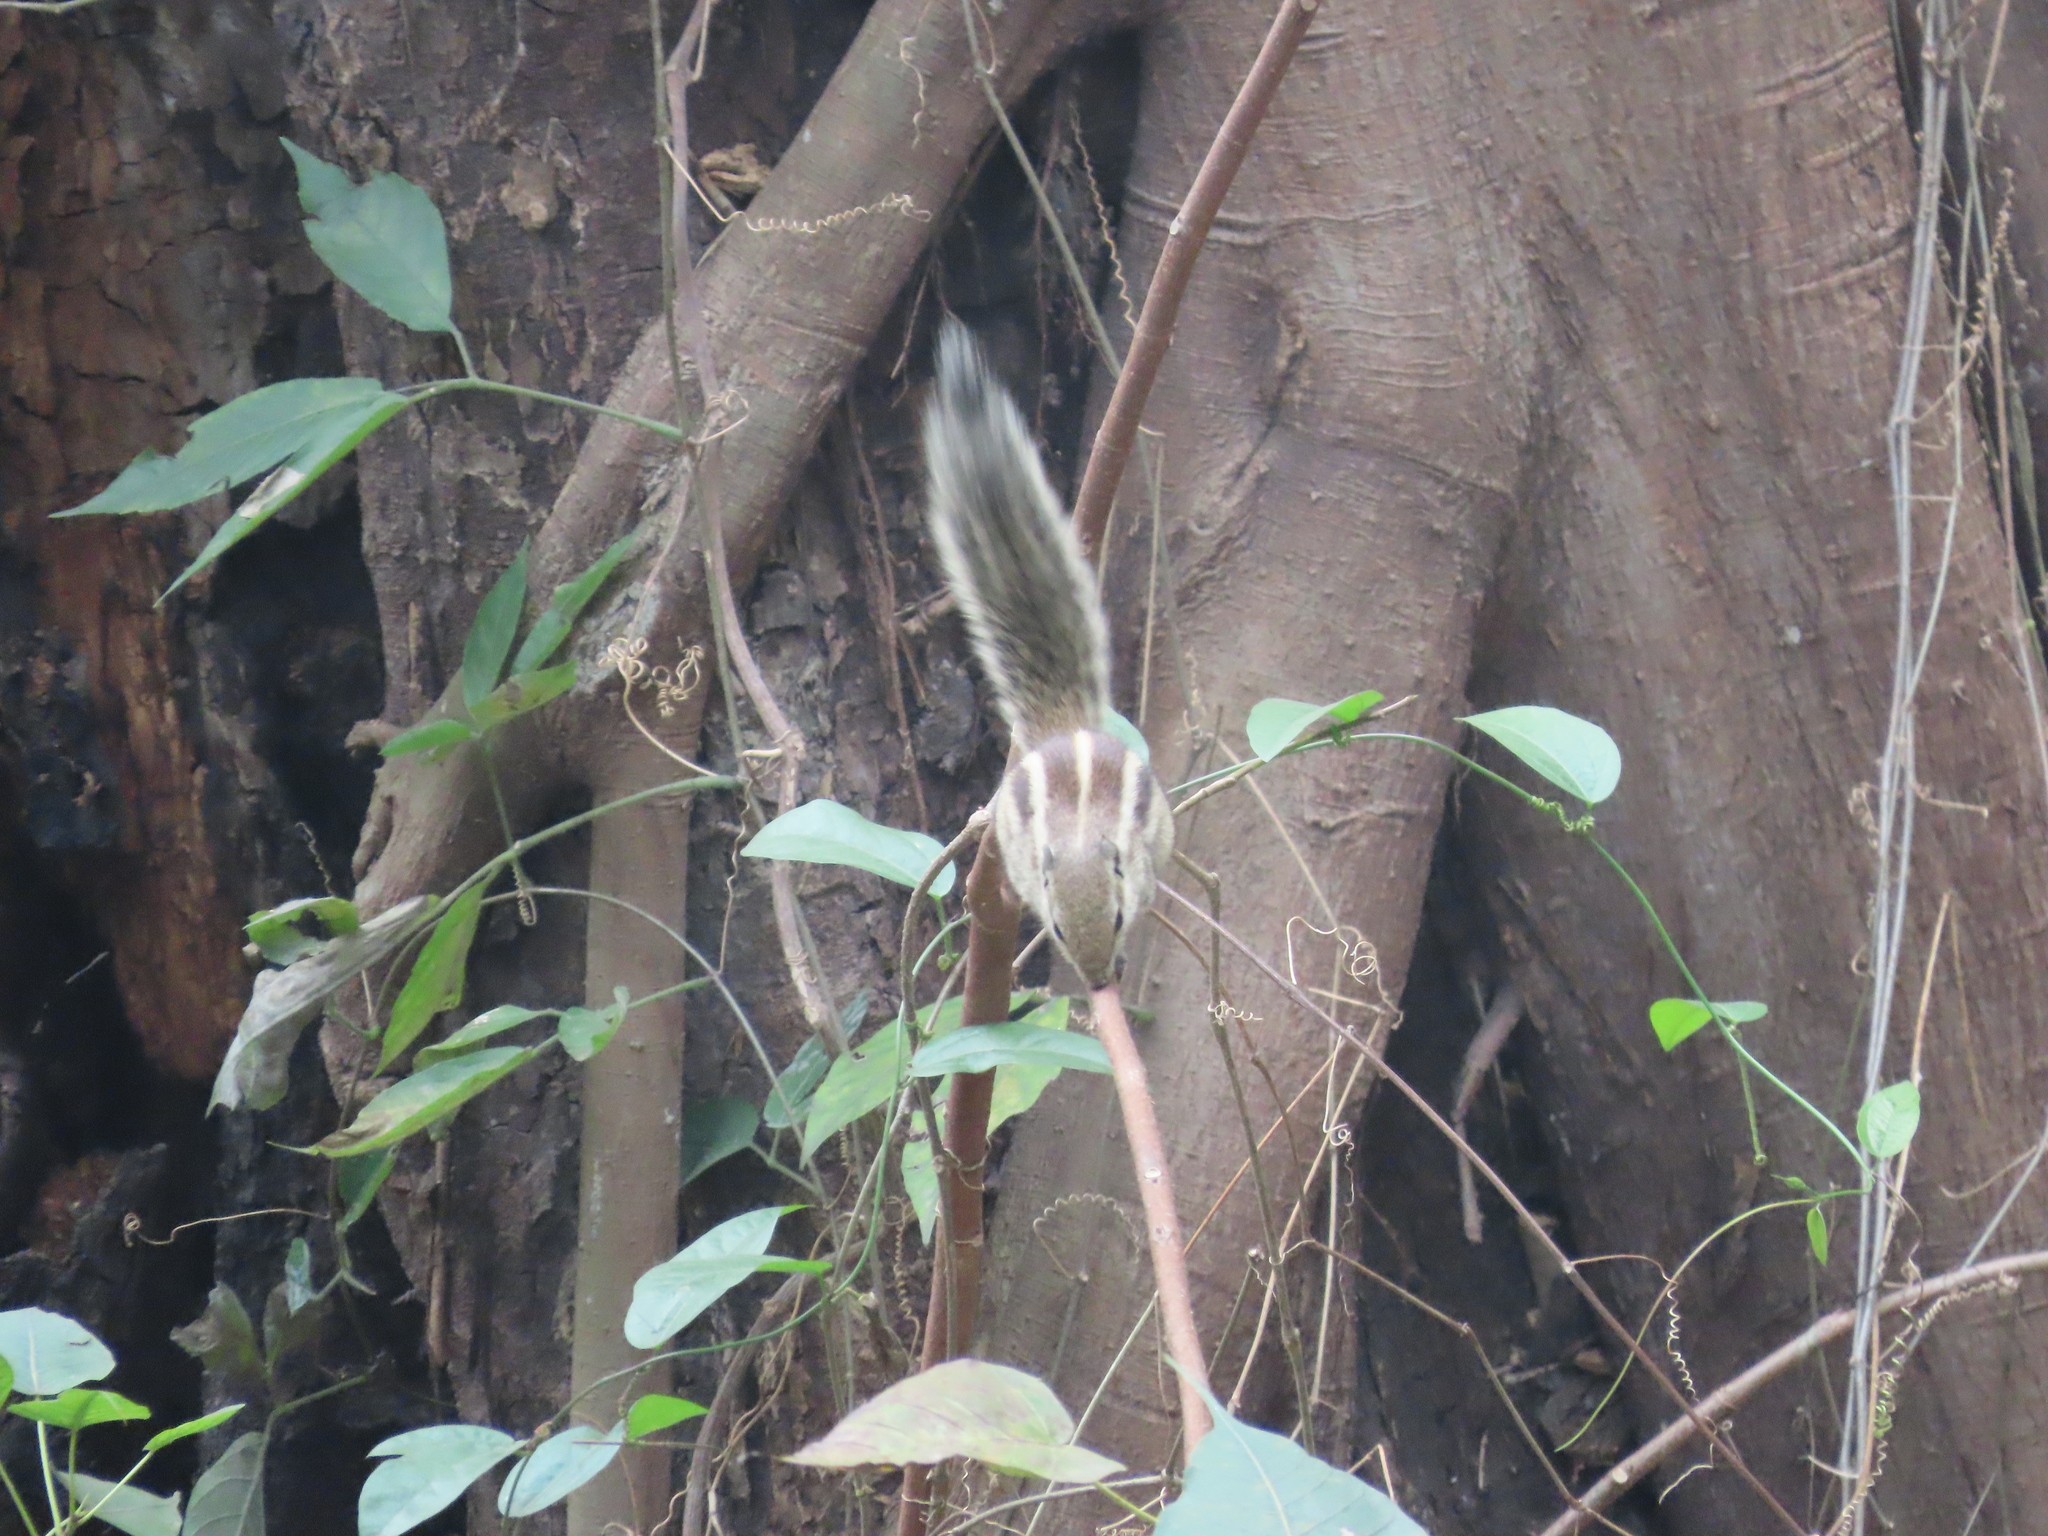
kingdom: Animalia
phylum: Chordata
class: Mammalia
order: Rodentia
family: Sciuridae
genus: Funambulus
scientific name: Funambulus pennantii
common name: Northern palm squirrel
